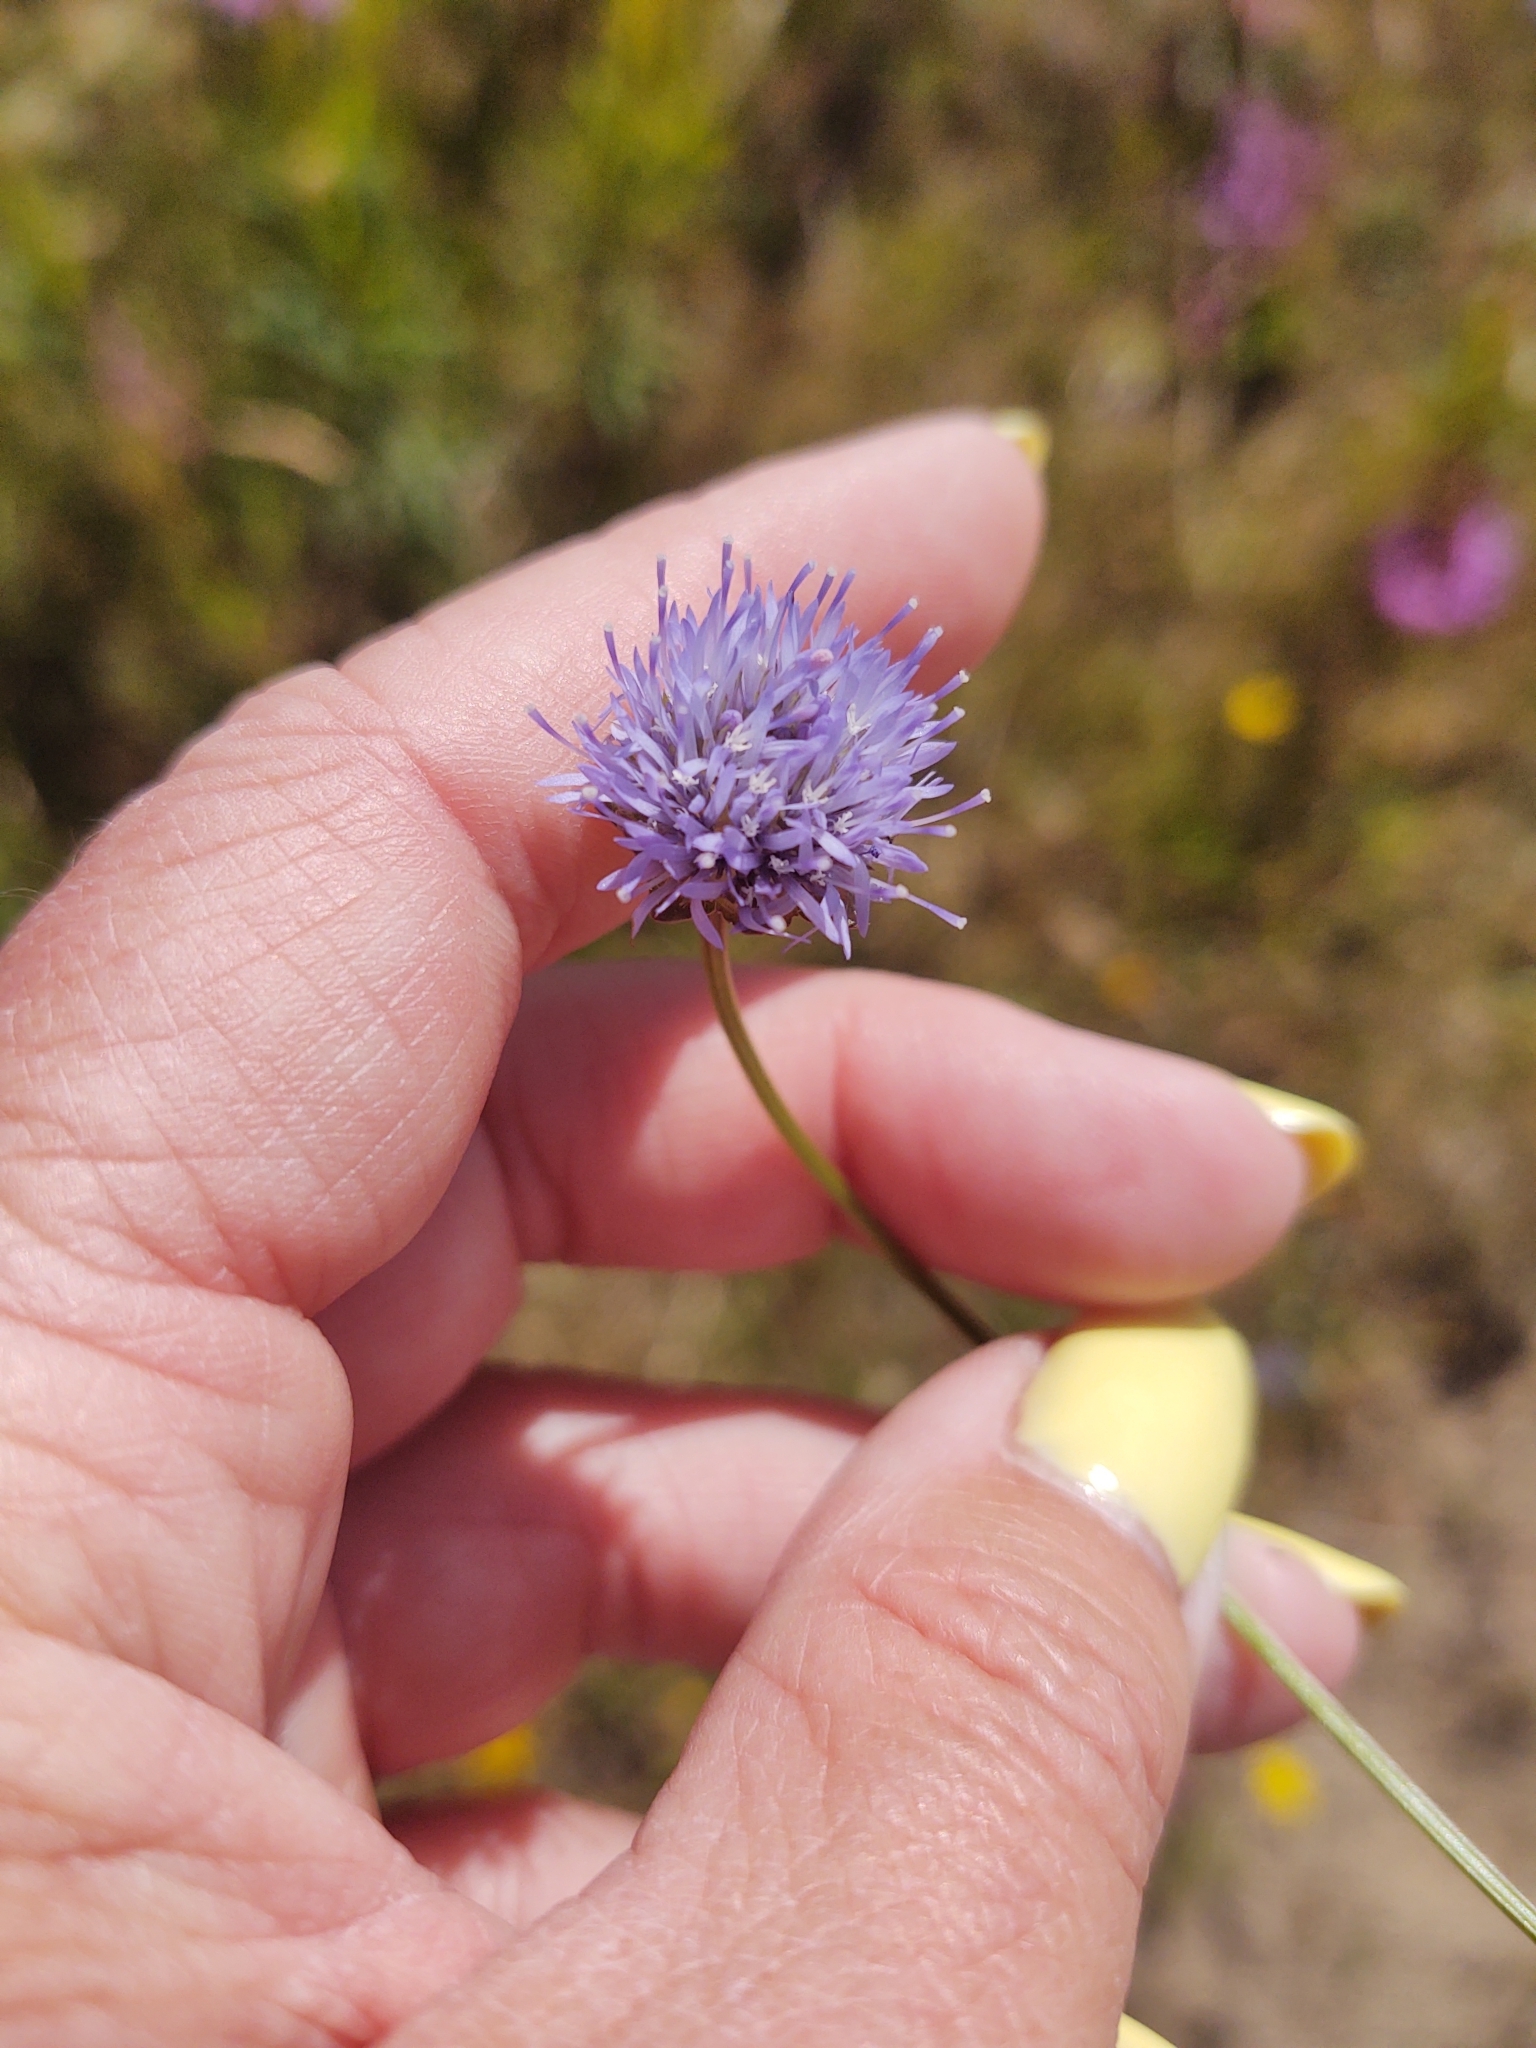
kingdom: Plantae
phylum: Tracheophyta
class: Magnoliopsida
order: Asterales
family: Campanulaceae
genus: Jasione
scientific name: Jasione montana
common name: Sheep's-bit
